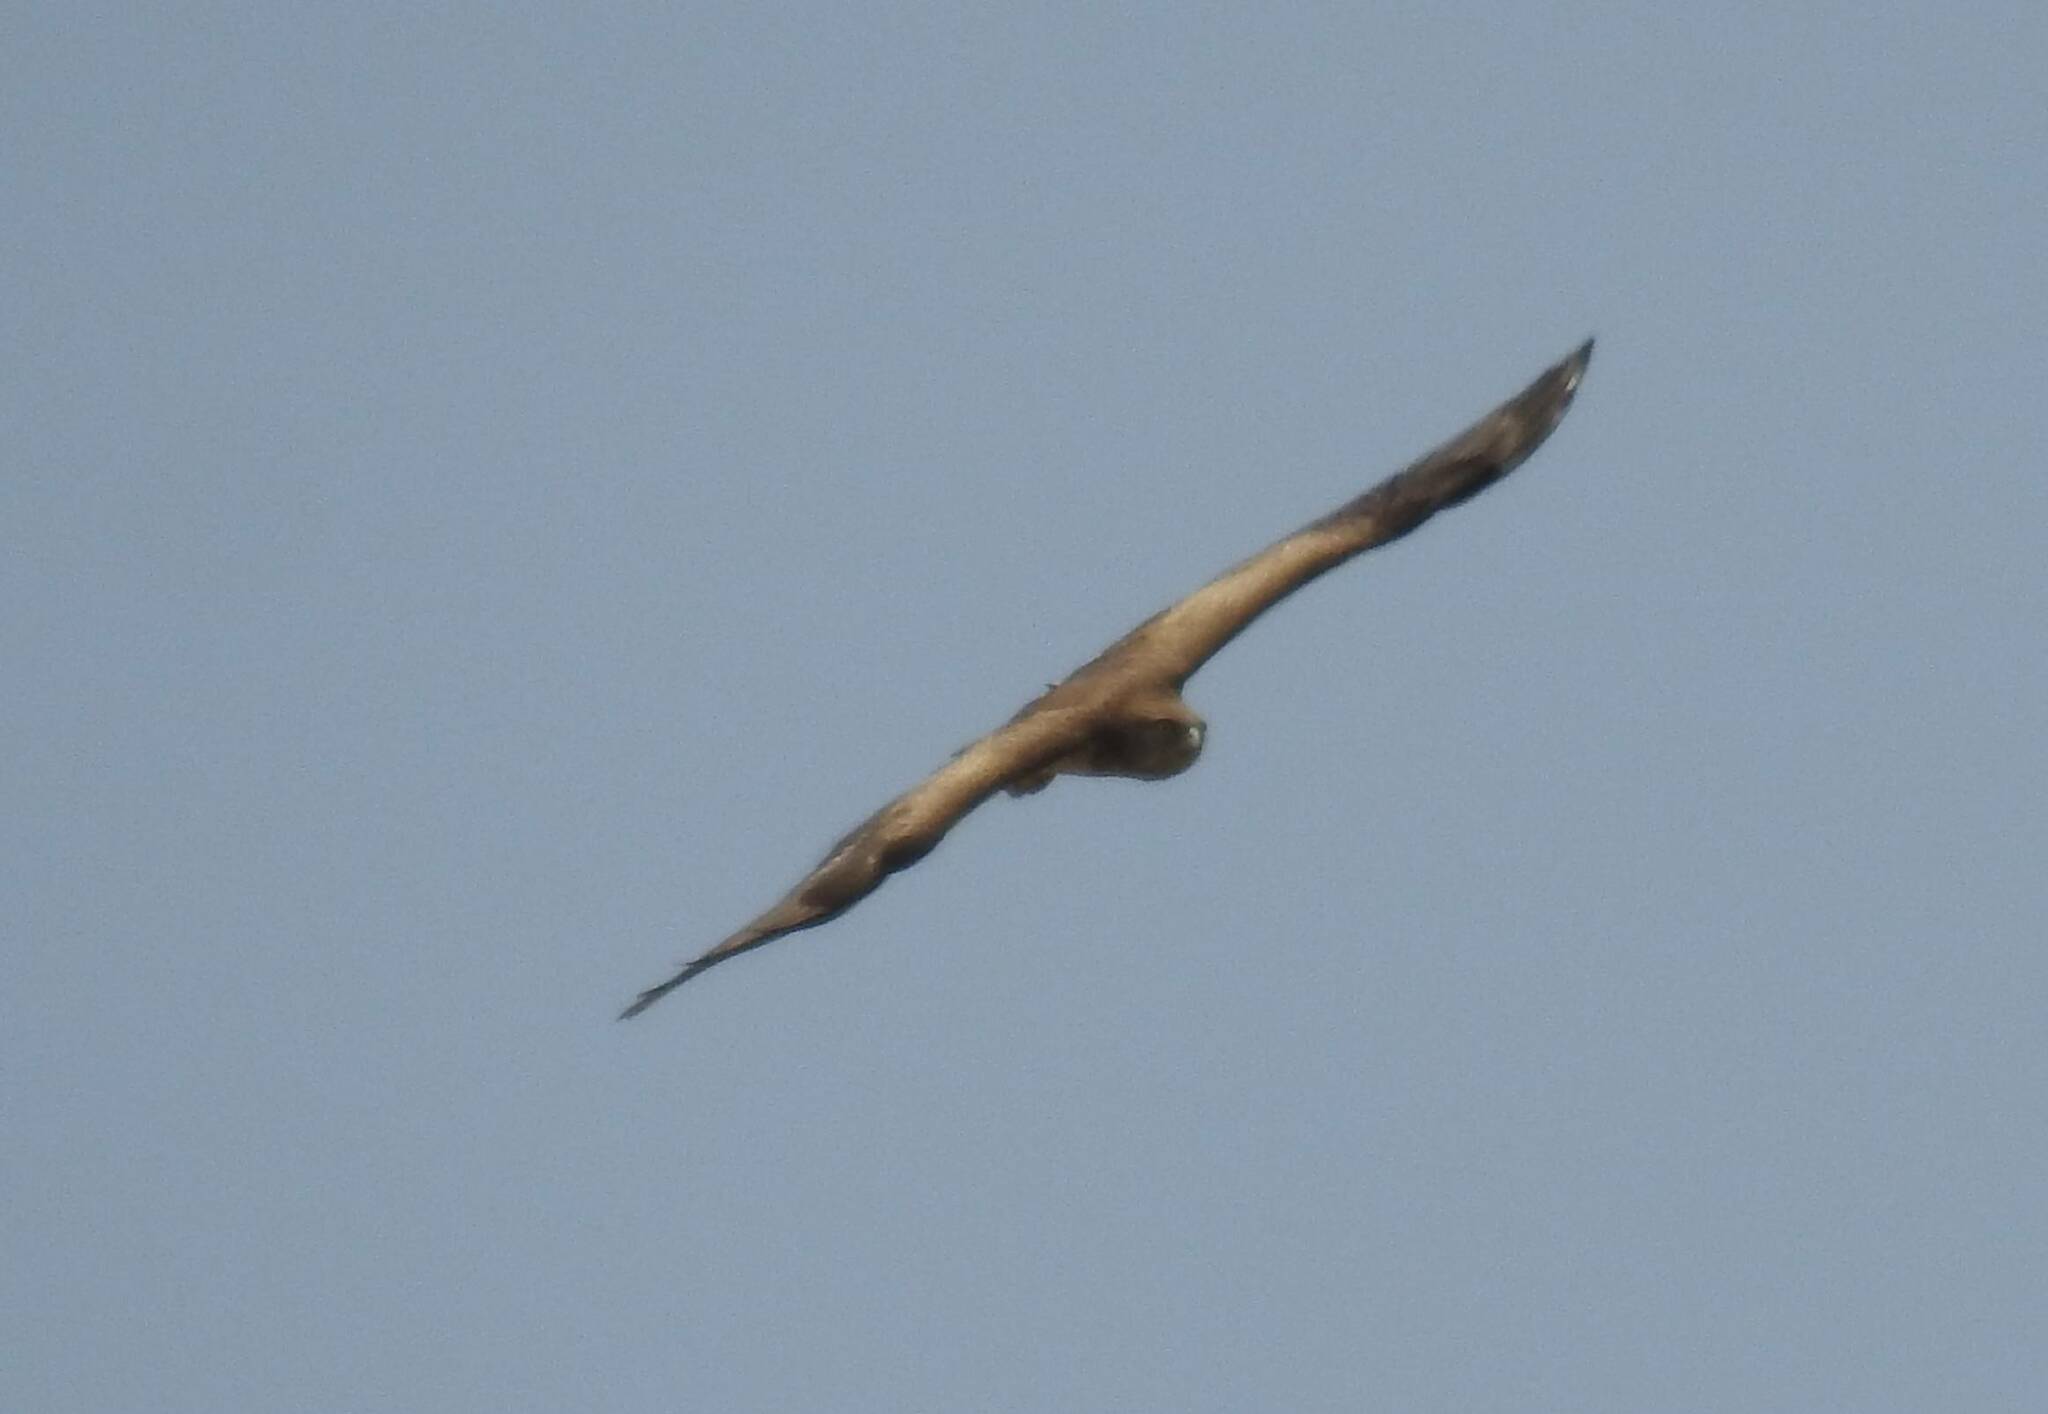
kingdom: Animalia
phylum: Chordata
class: Aves
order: Accipitriformes
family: Accipitridae
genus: Circaetus
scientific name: Circaetus gallicus
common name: Short-toed snake eagle
